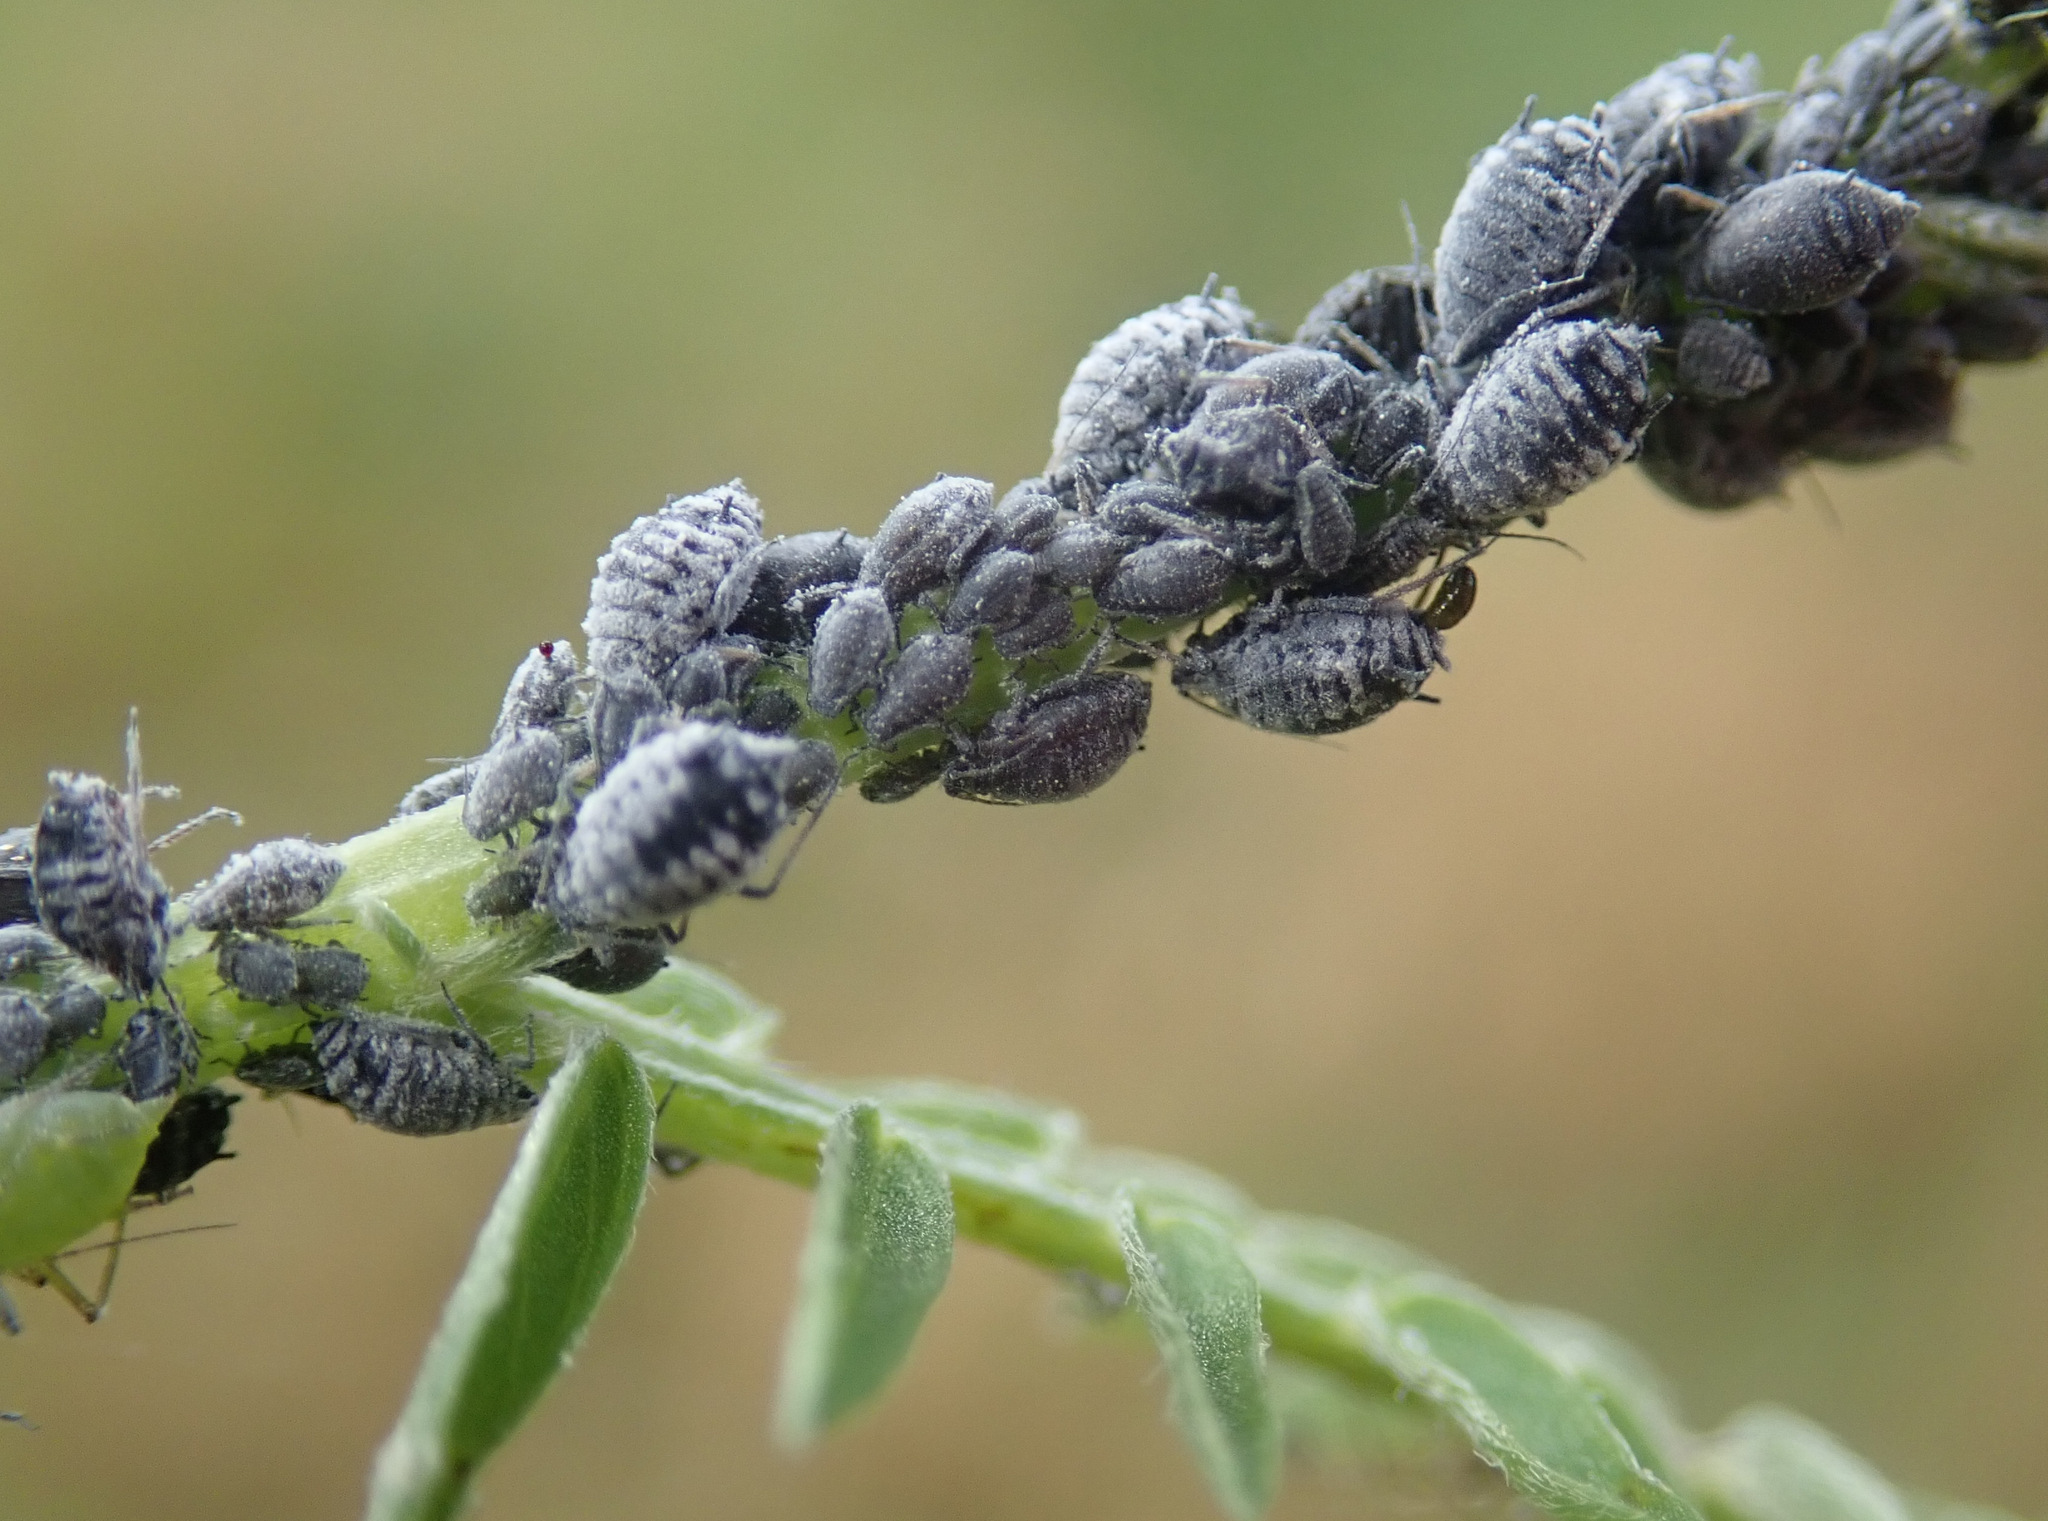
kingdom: Animalia
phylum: Arthropoda
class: Insecta
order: Hemiptera
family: Aphididae
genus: Aphis
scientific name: Aphis craccae
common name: Aphid
